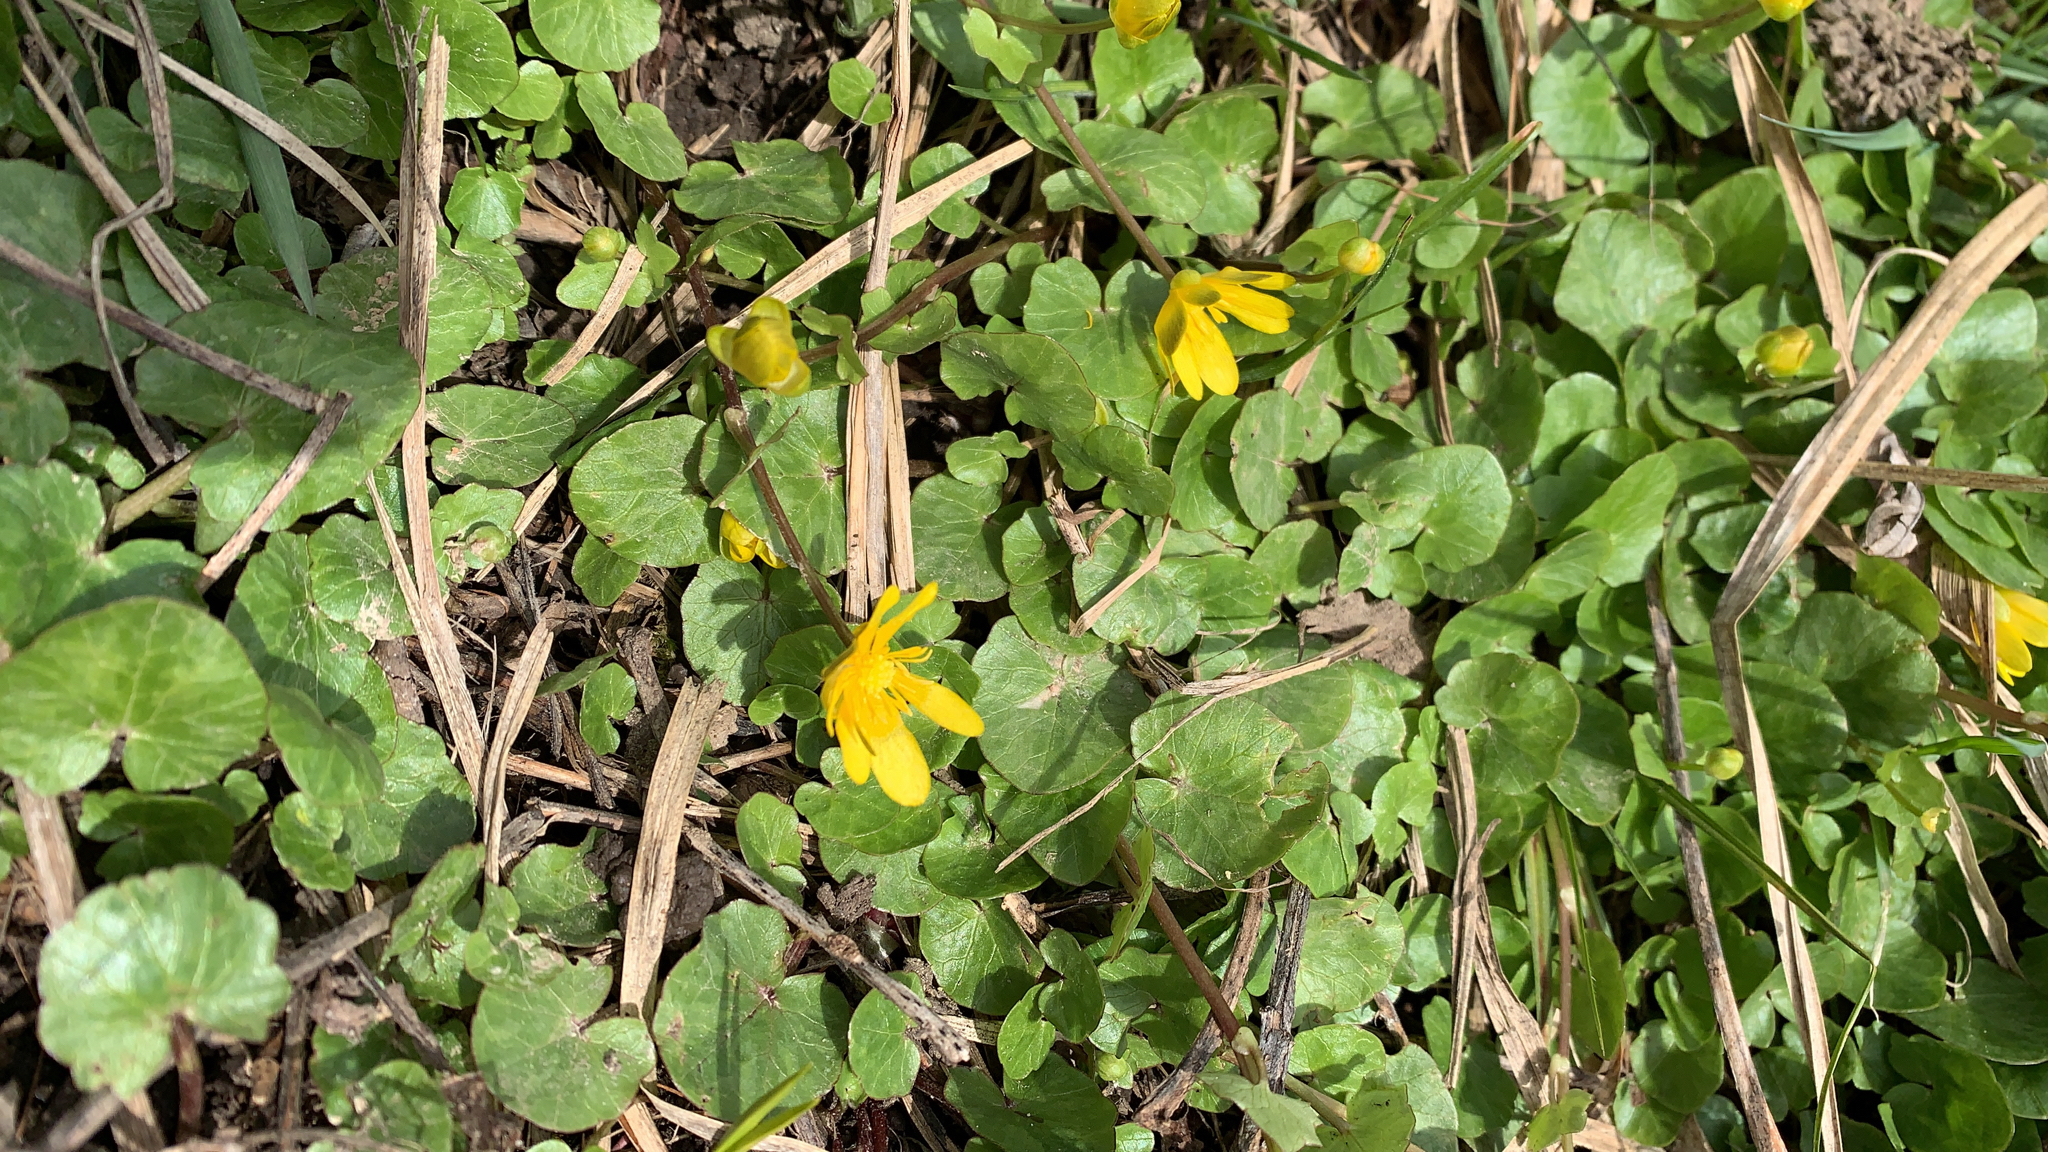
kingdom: Plantae
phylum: Tracheophyta
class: Magnoliopsida
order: Ranunculales
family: Ranunculaceae
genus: Ficaria
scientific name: Ficaria verna
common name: Lesser celandine
